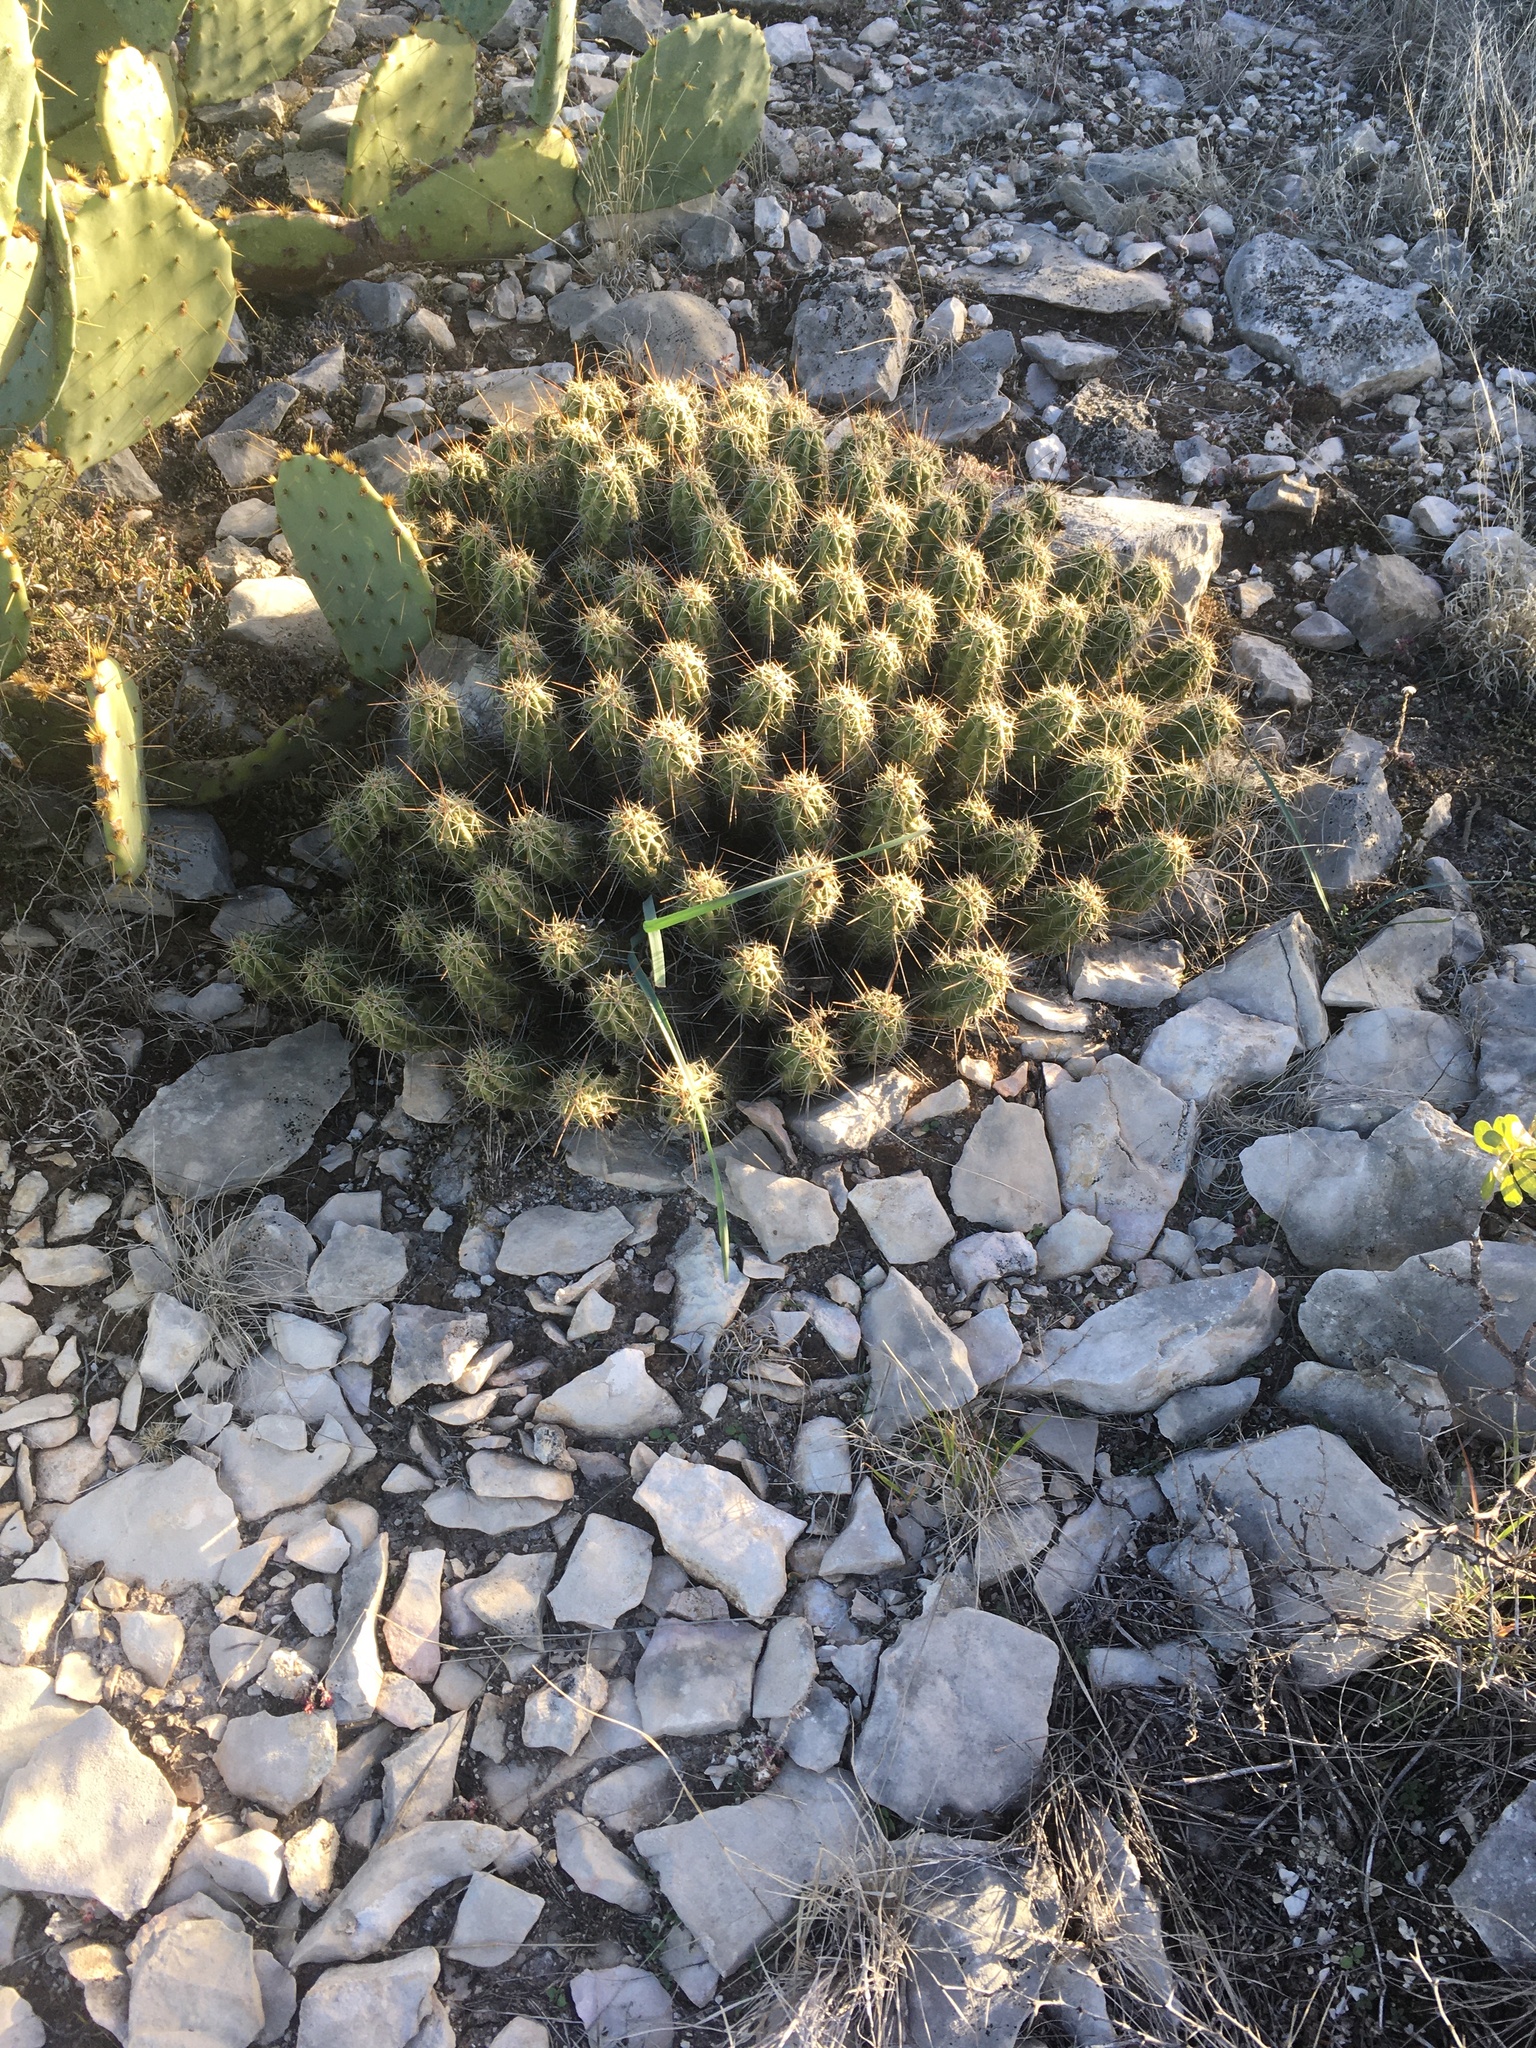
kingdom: Plantae
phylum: Tracheophyta
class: Magnoliopsida
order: Caryophyllales
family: Cactaceae
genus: Echinocereus
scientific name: Echinocereus enneacanthus
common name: Pitaya
